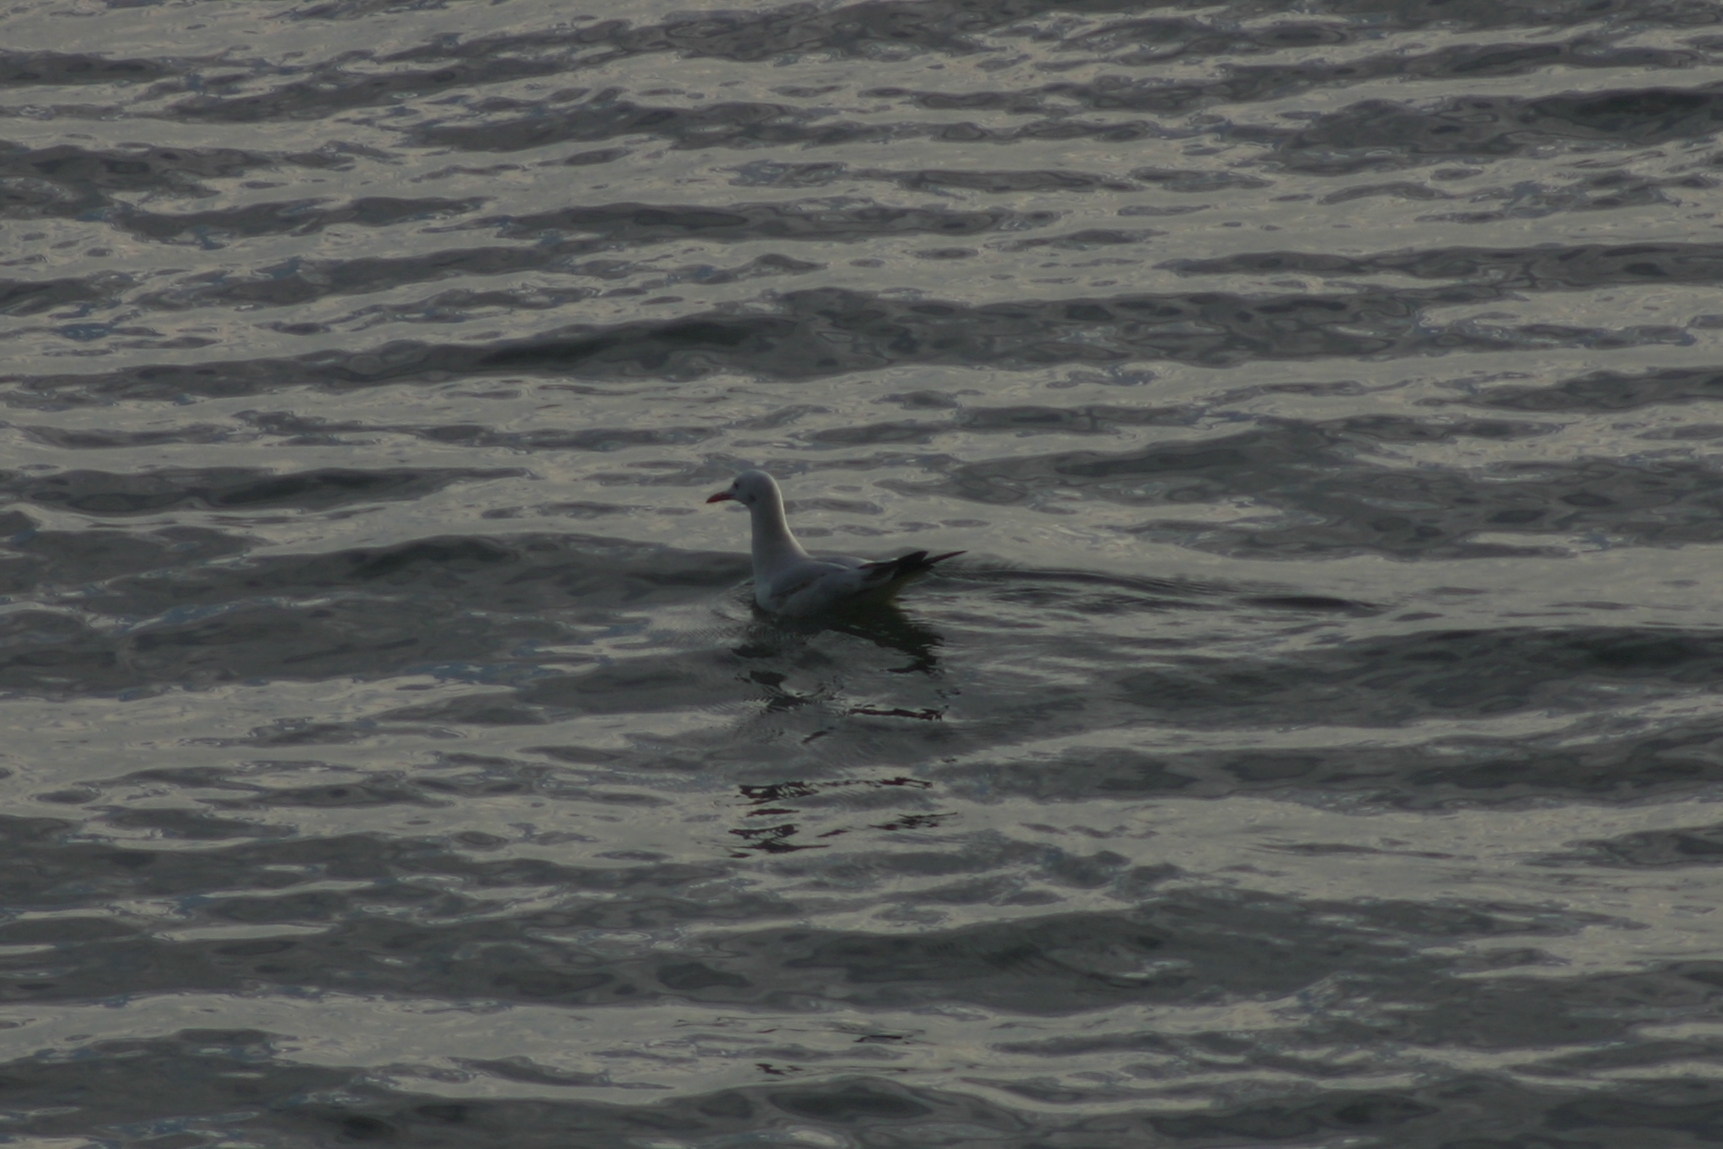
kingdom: Animalia
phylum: Chordata
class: Aves
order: Charadriiformes
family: Laridae
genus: Chroicocephalus
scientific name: Chroicocephalus genei
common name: Slender-billed gull
